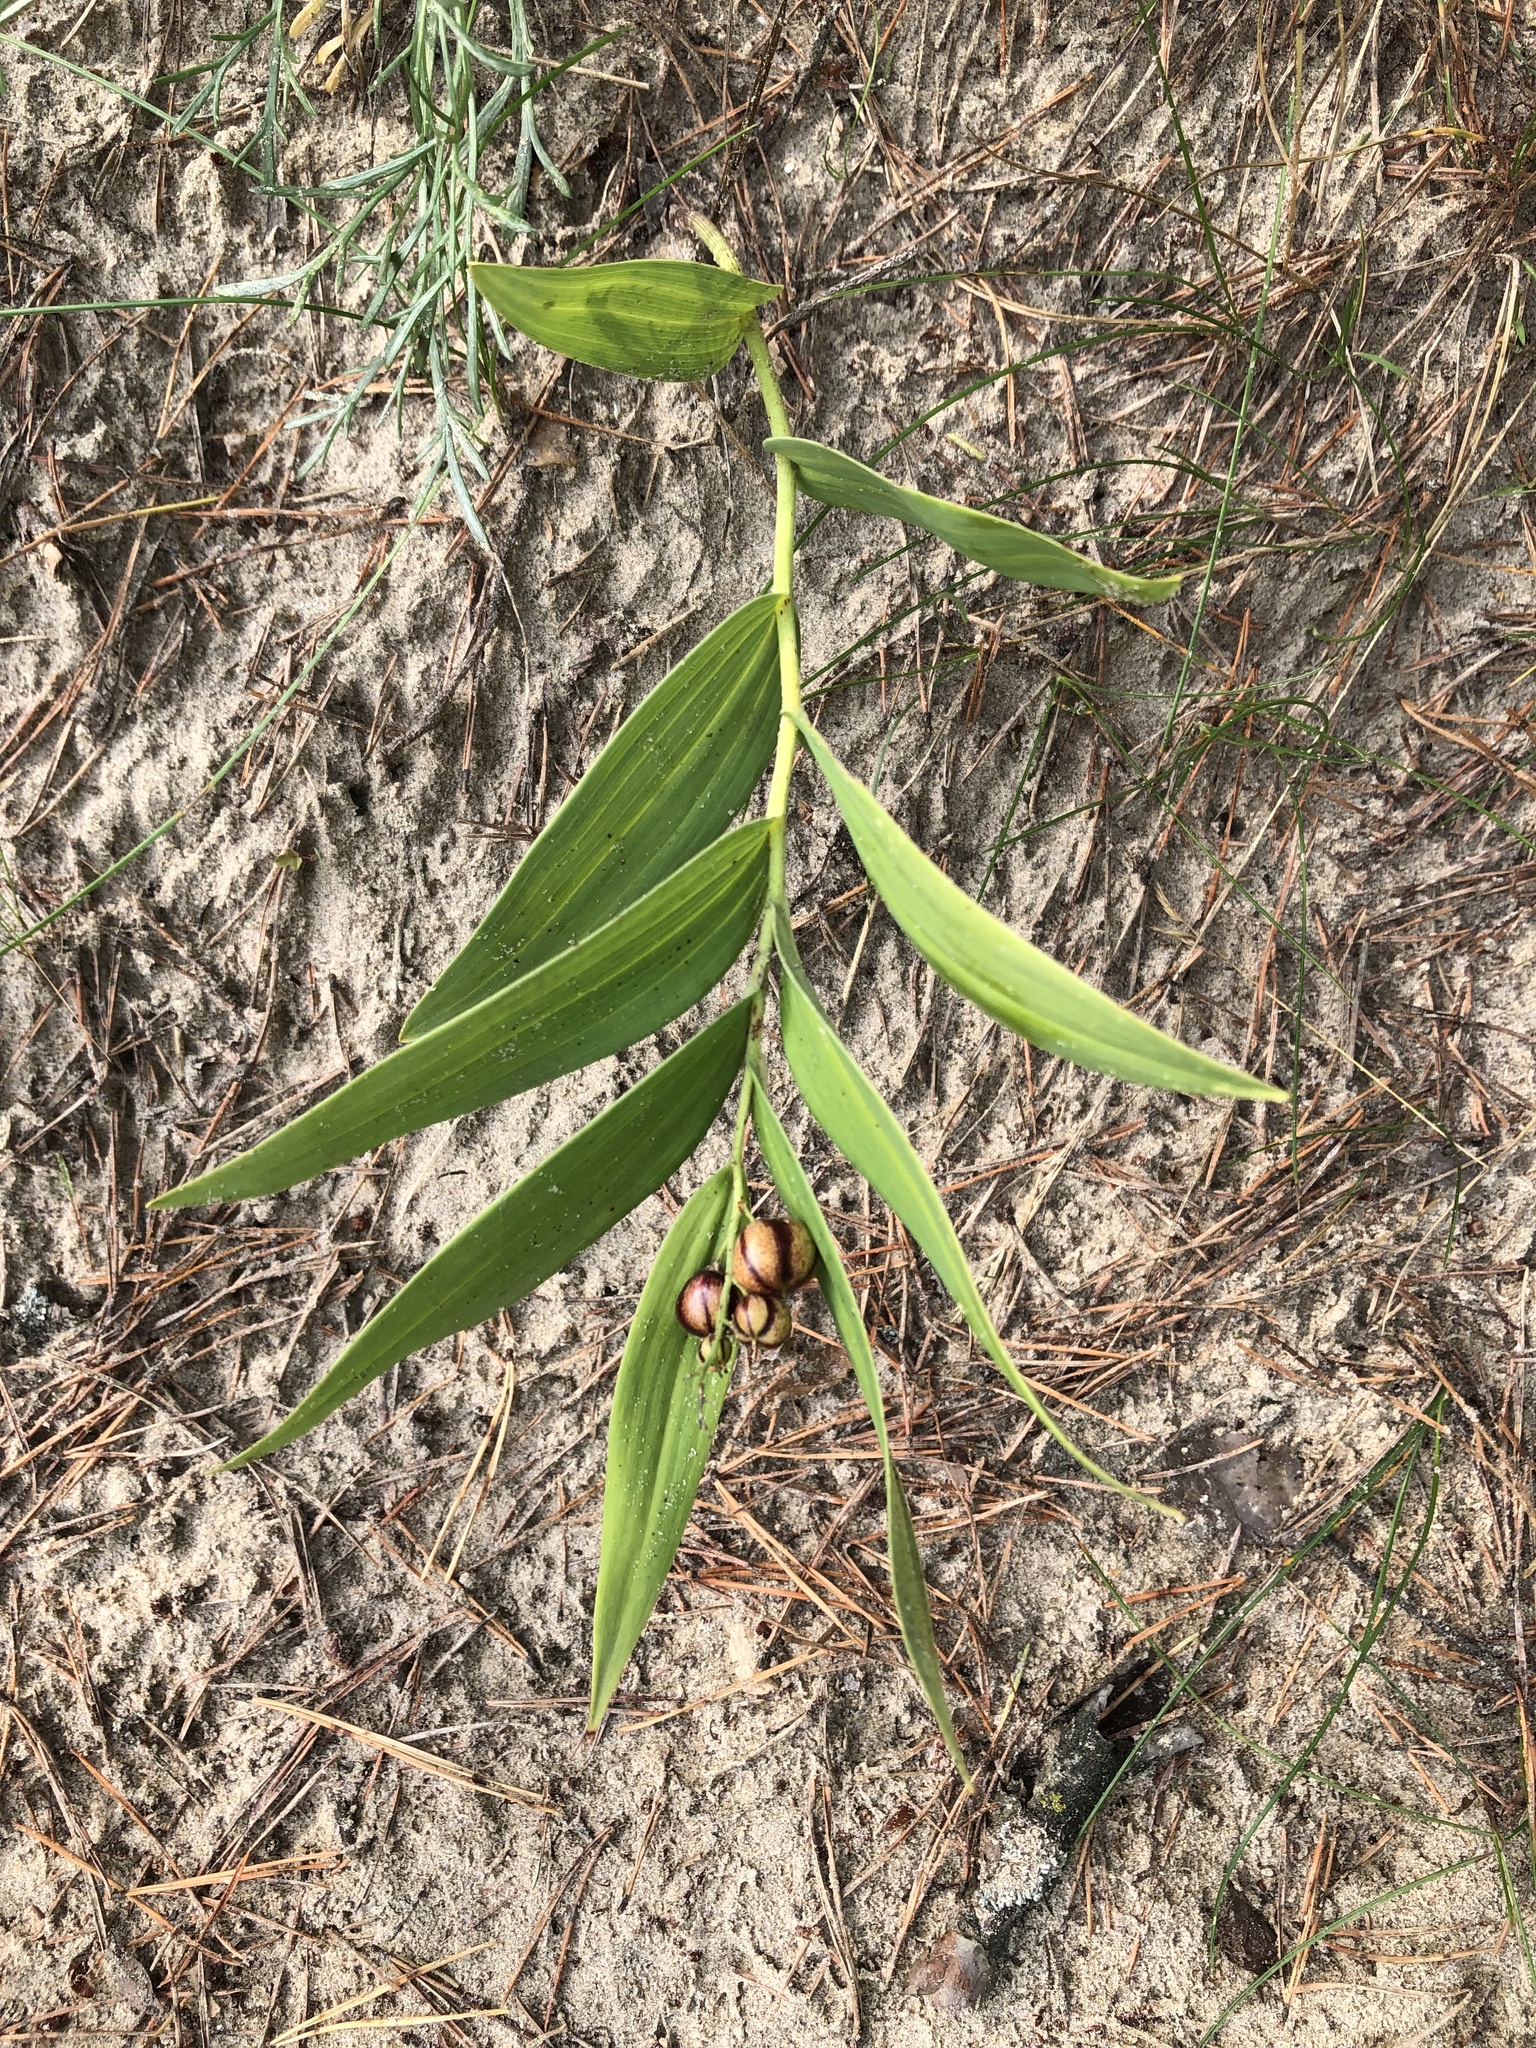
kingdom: Plantae
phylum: Tracheophyta
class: Liliopsida
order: Asparagales
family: Asparagaceae
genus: Maianthemum
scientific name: Maianthemum stellatum
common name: Little false solomon's seal
